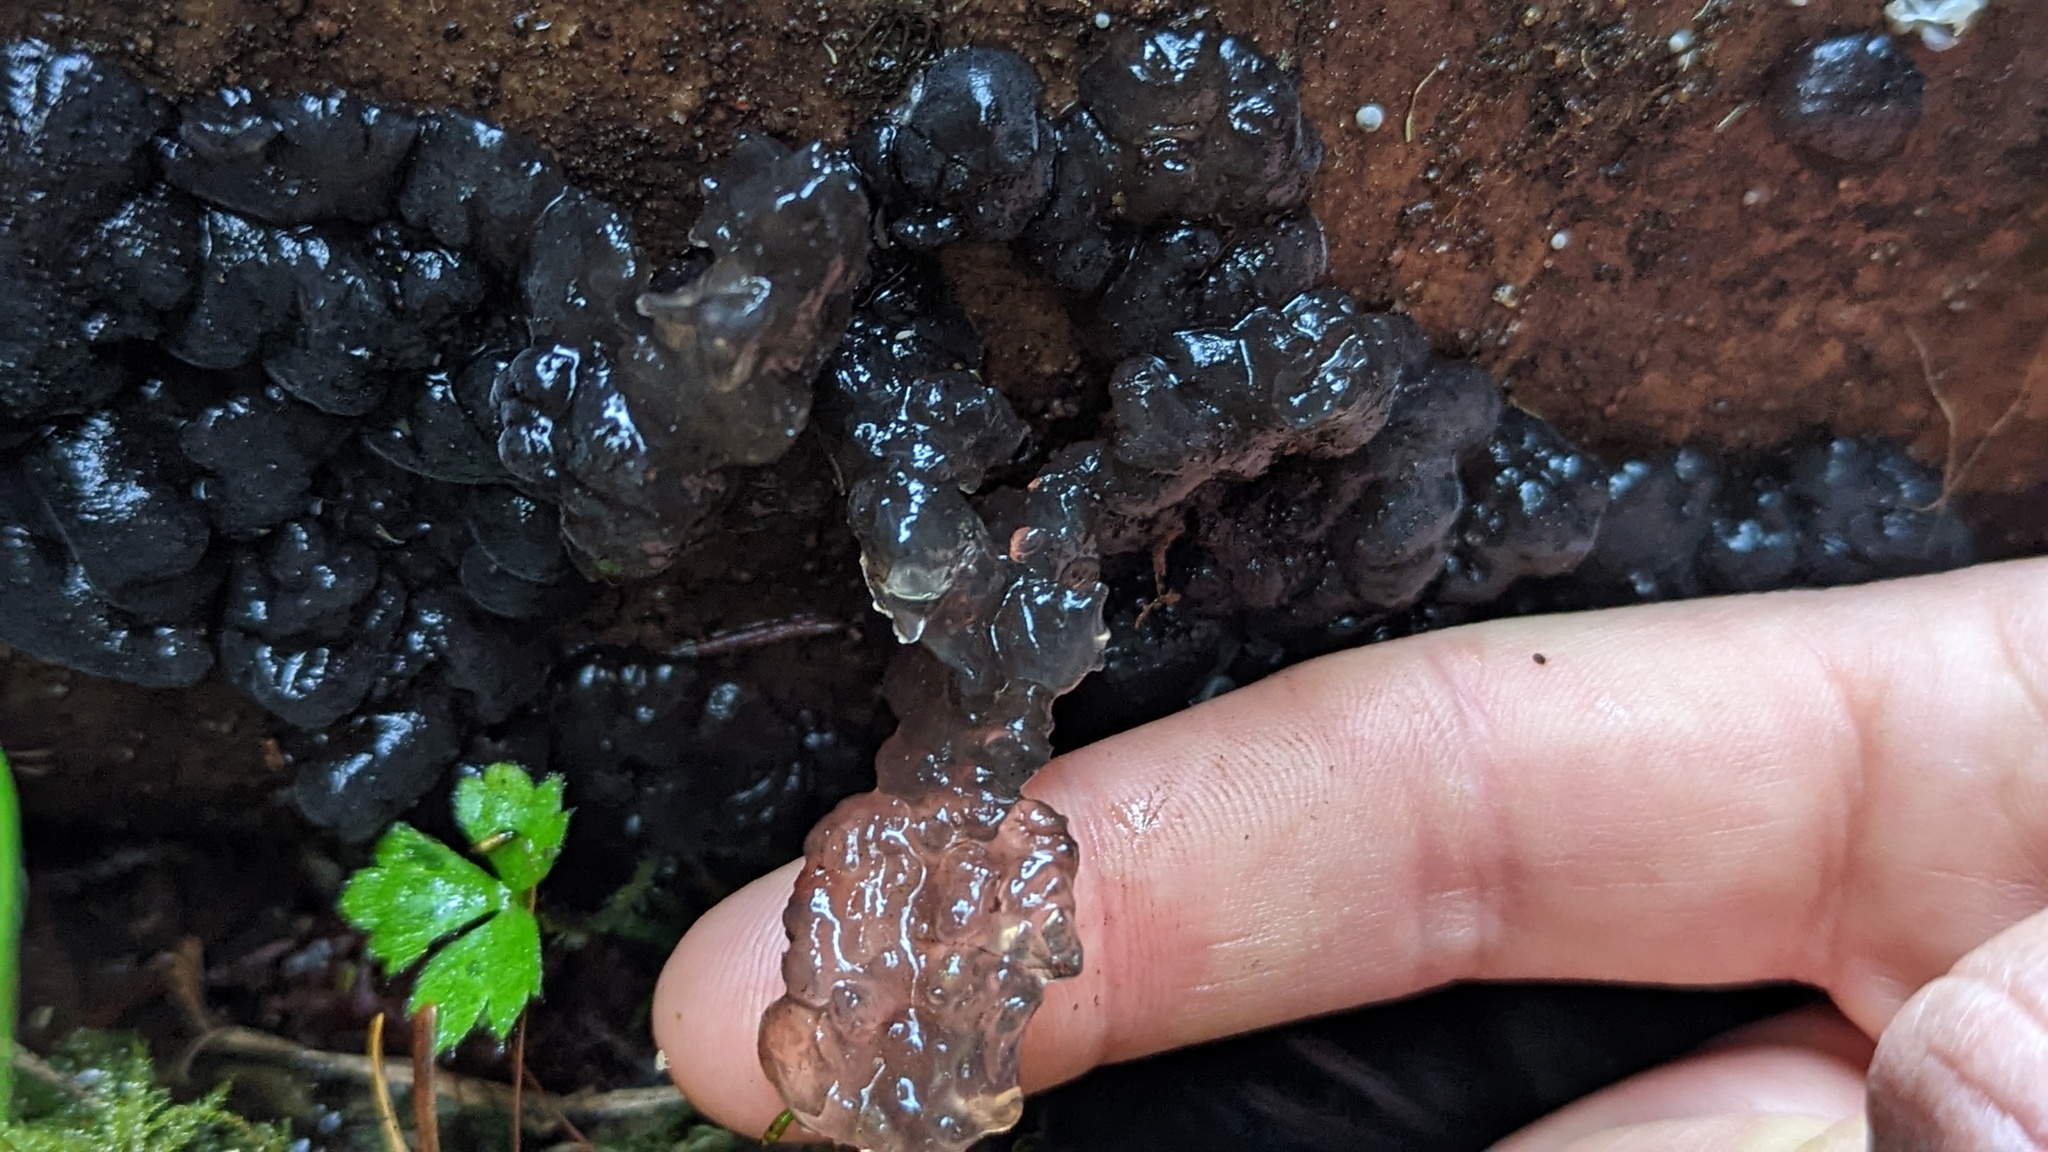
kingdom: Fungi
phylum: Basidiomycota
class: Agaricomycetes
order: Auriculariales
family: Auriculariaceae
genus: Exidia
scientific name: Exidia glandulosa
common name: Witches' butter
